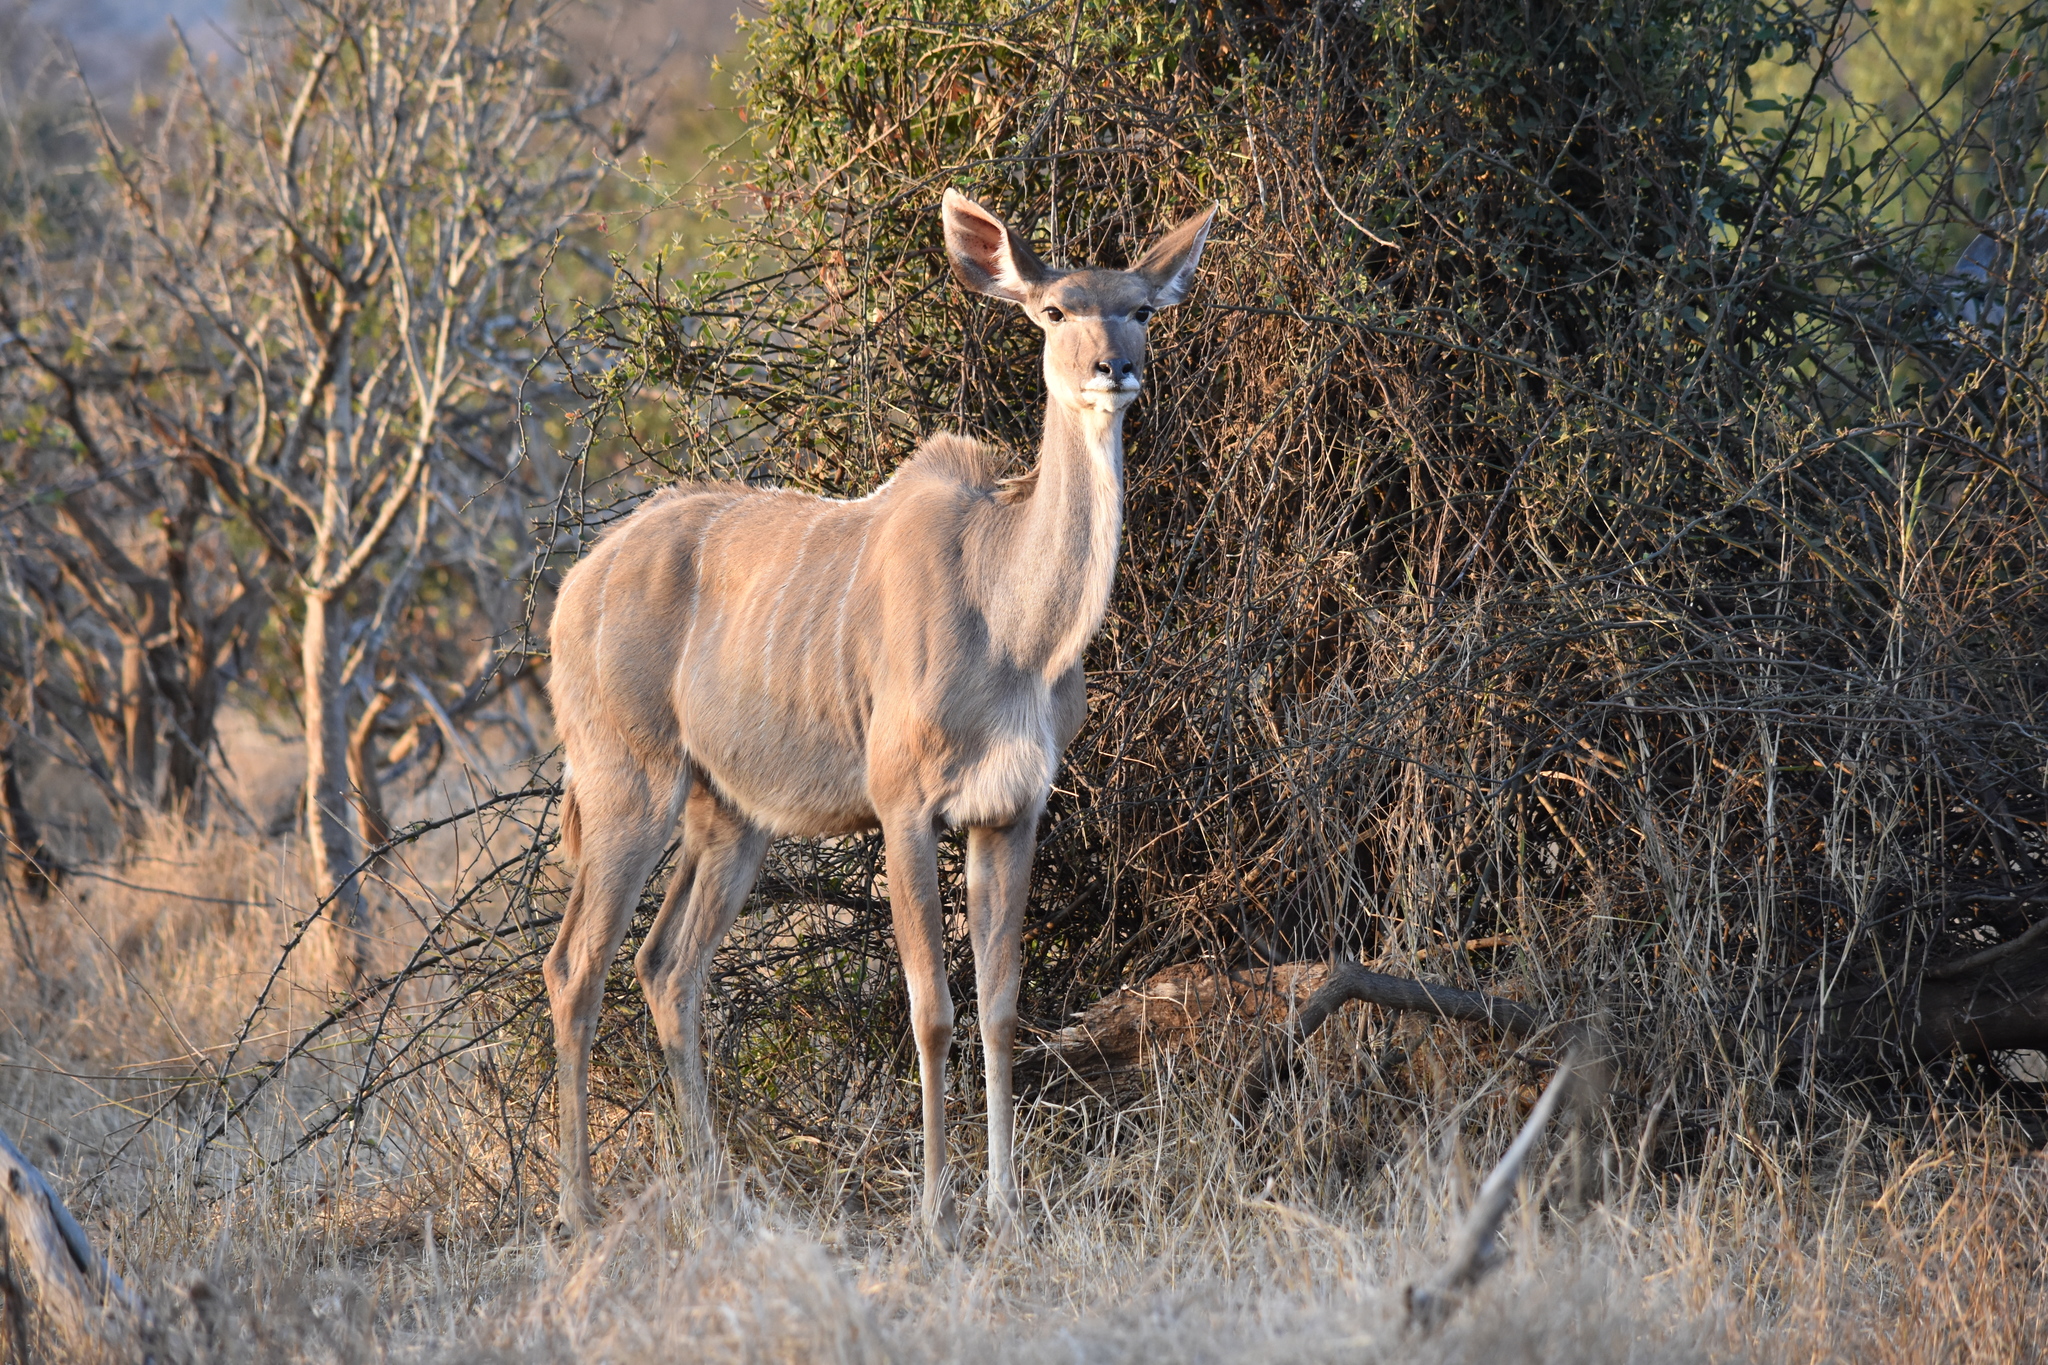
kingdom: Animalia
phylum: Chordata
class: Mammalia
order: Artiodactyla
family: Bovidae
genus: Tragelaphus
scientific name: Tragelaphus strepsiceros
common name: Greater kudu
